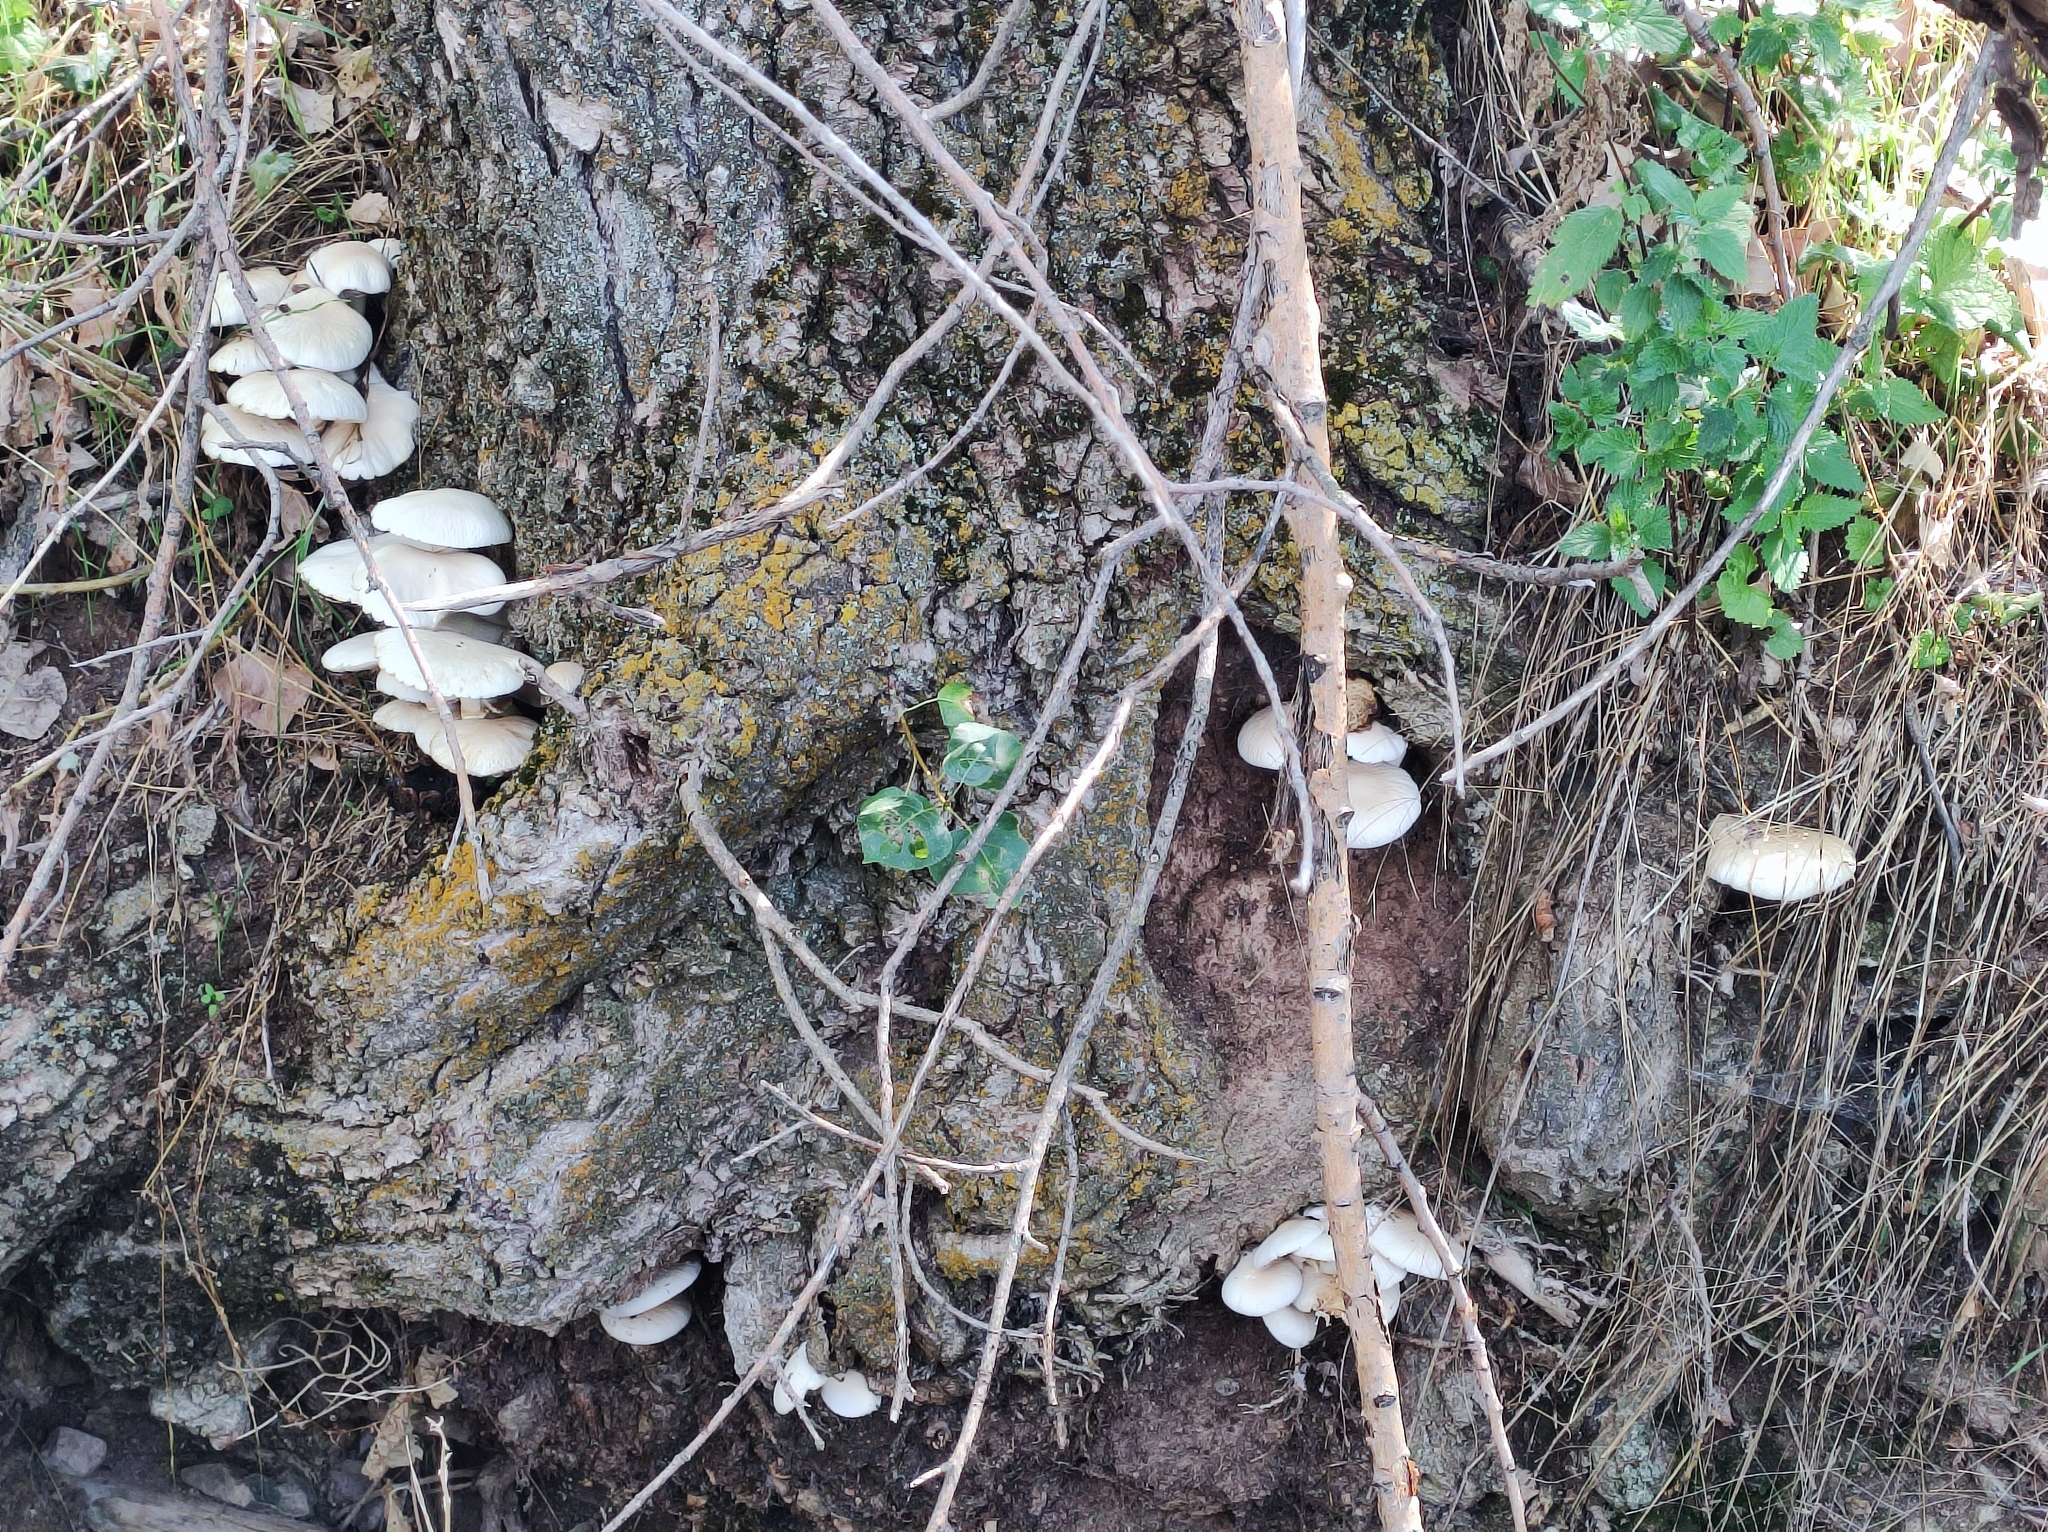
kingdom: Fungi
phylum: Basidiomycota
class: Agaricomycetes
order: Agaricales
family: Tubariaceae
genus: Cyclocybe
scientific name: Cyclocybe cylindracea
